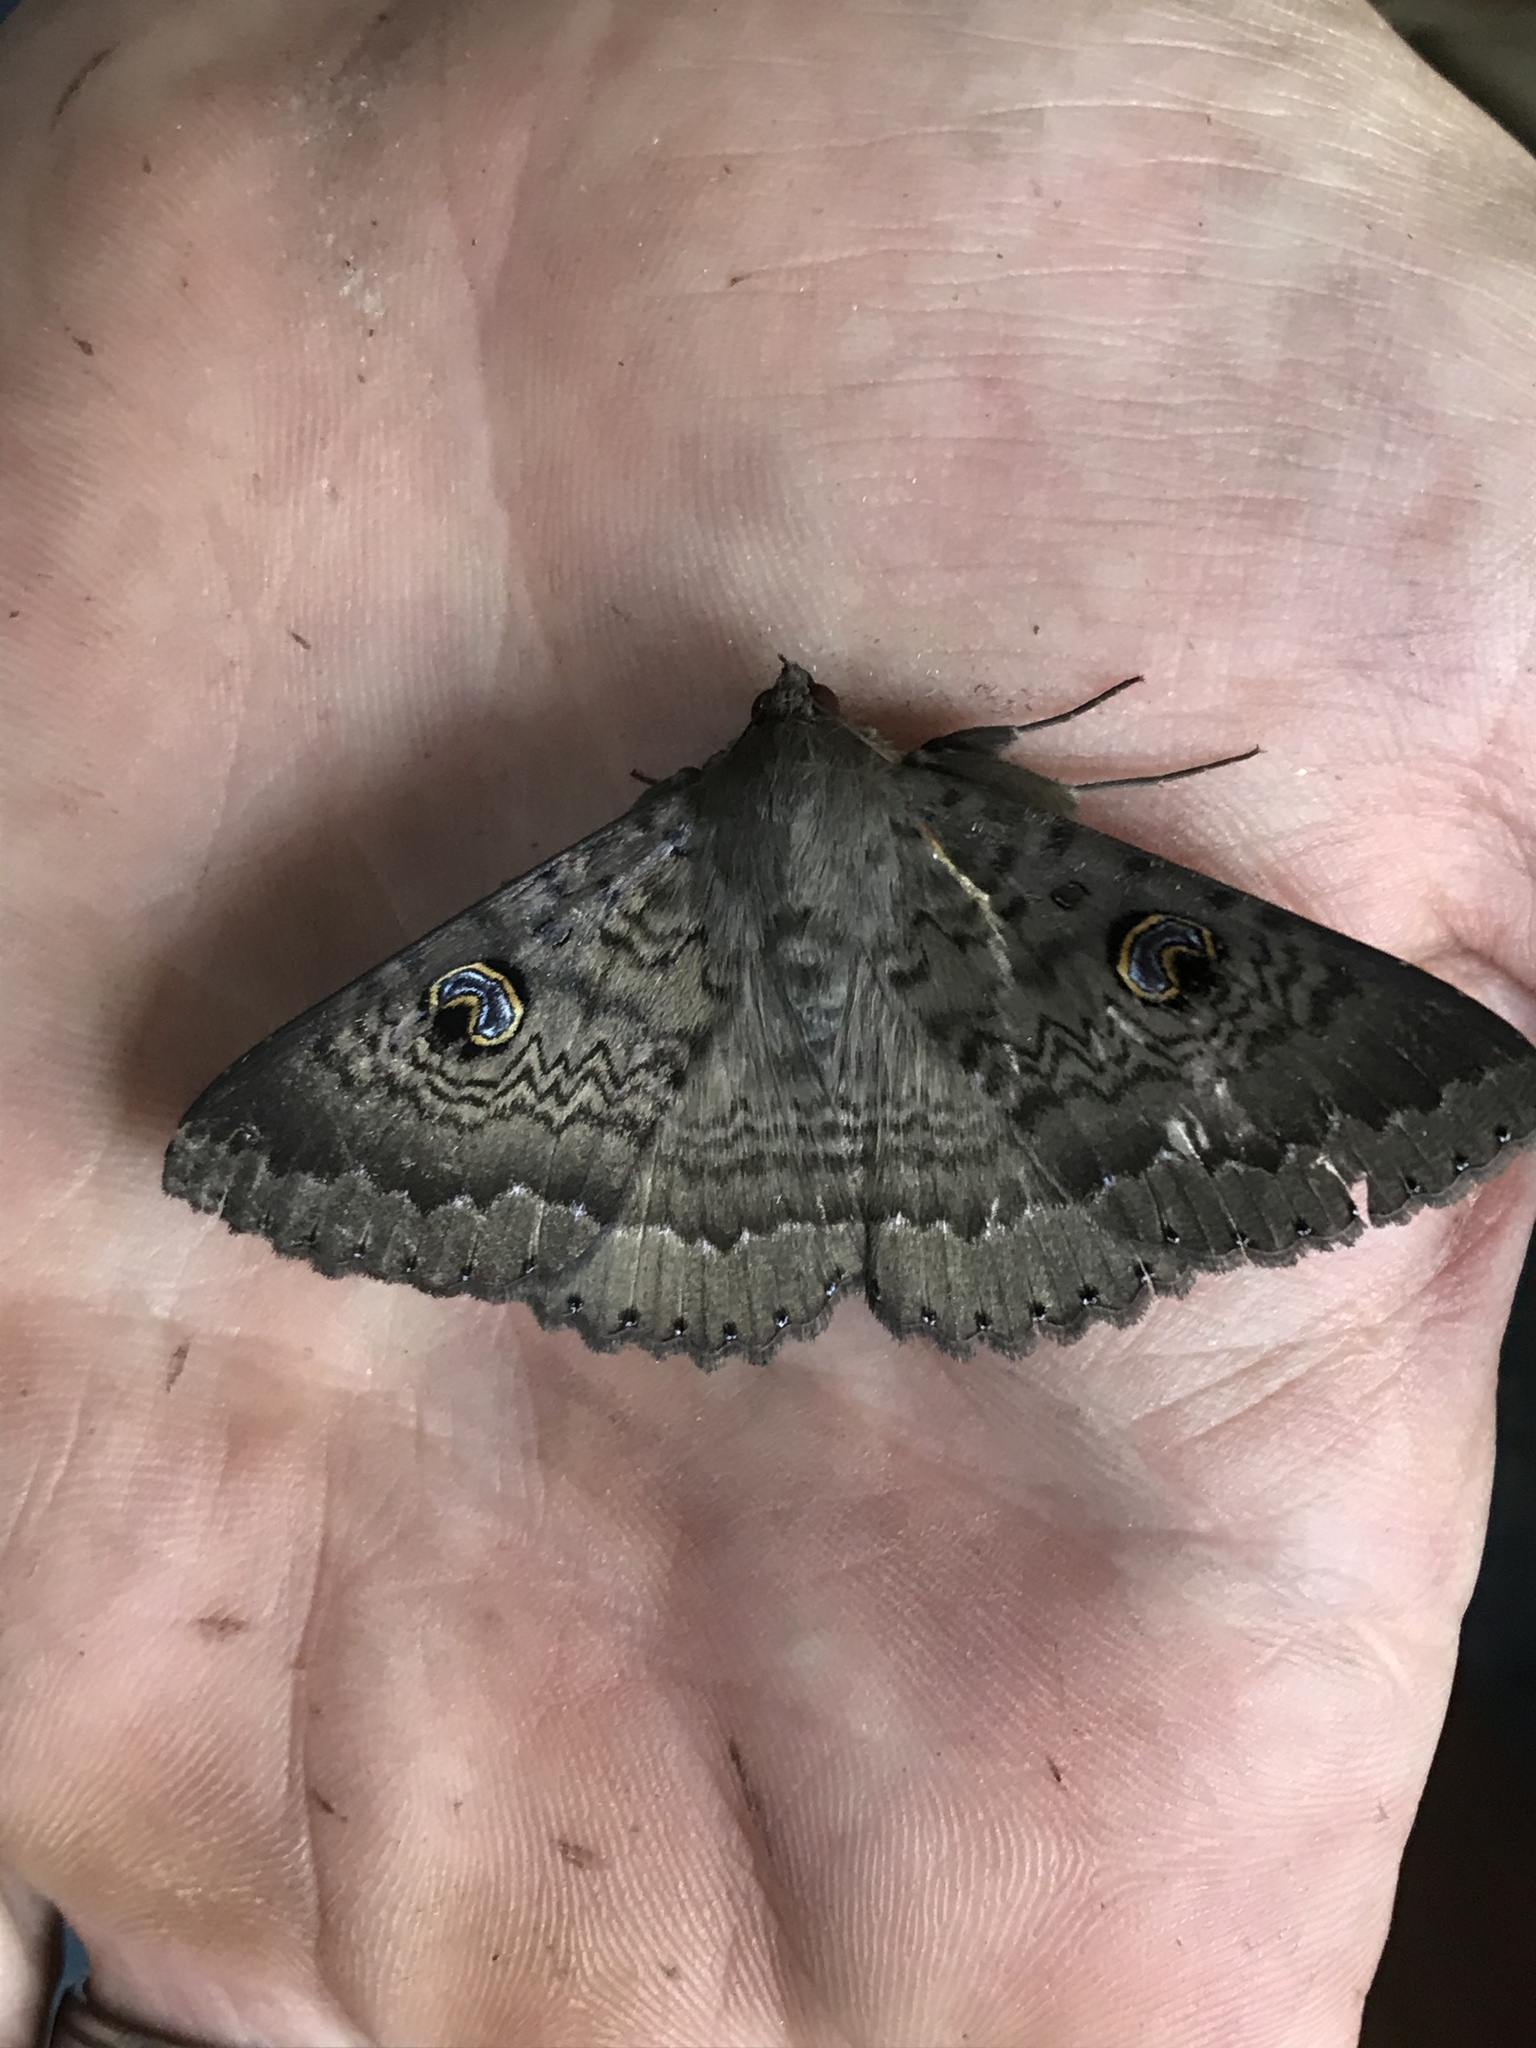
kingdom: Animalia
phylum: Arthropoda
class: Insecta
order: Lepidoptera
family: Erebidae
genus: Dasypodia
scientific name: Dasypodia cymatodes
